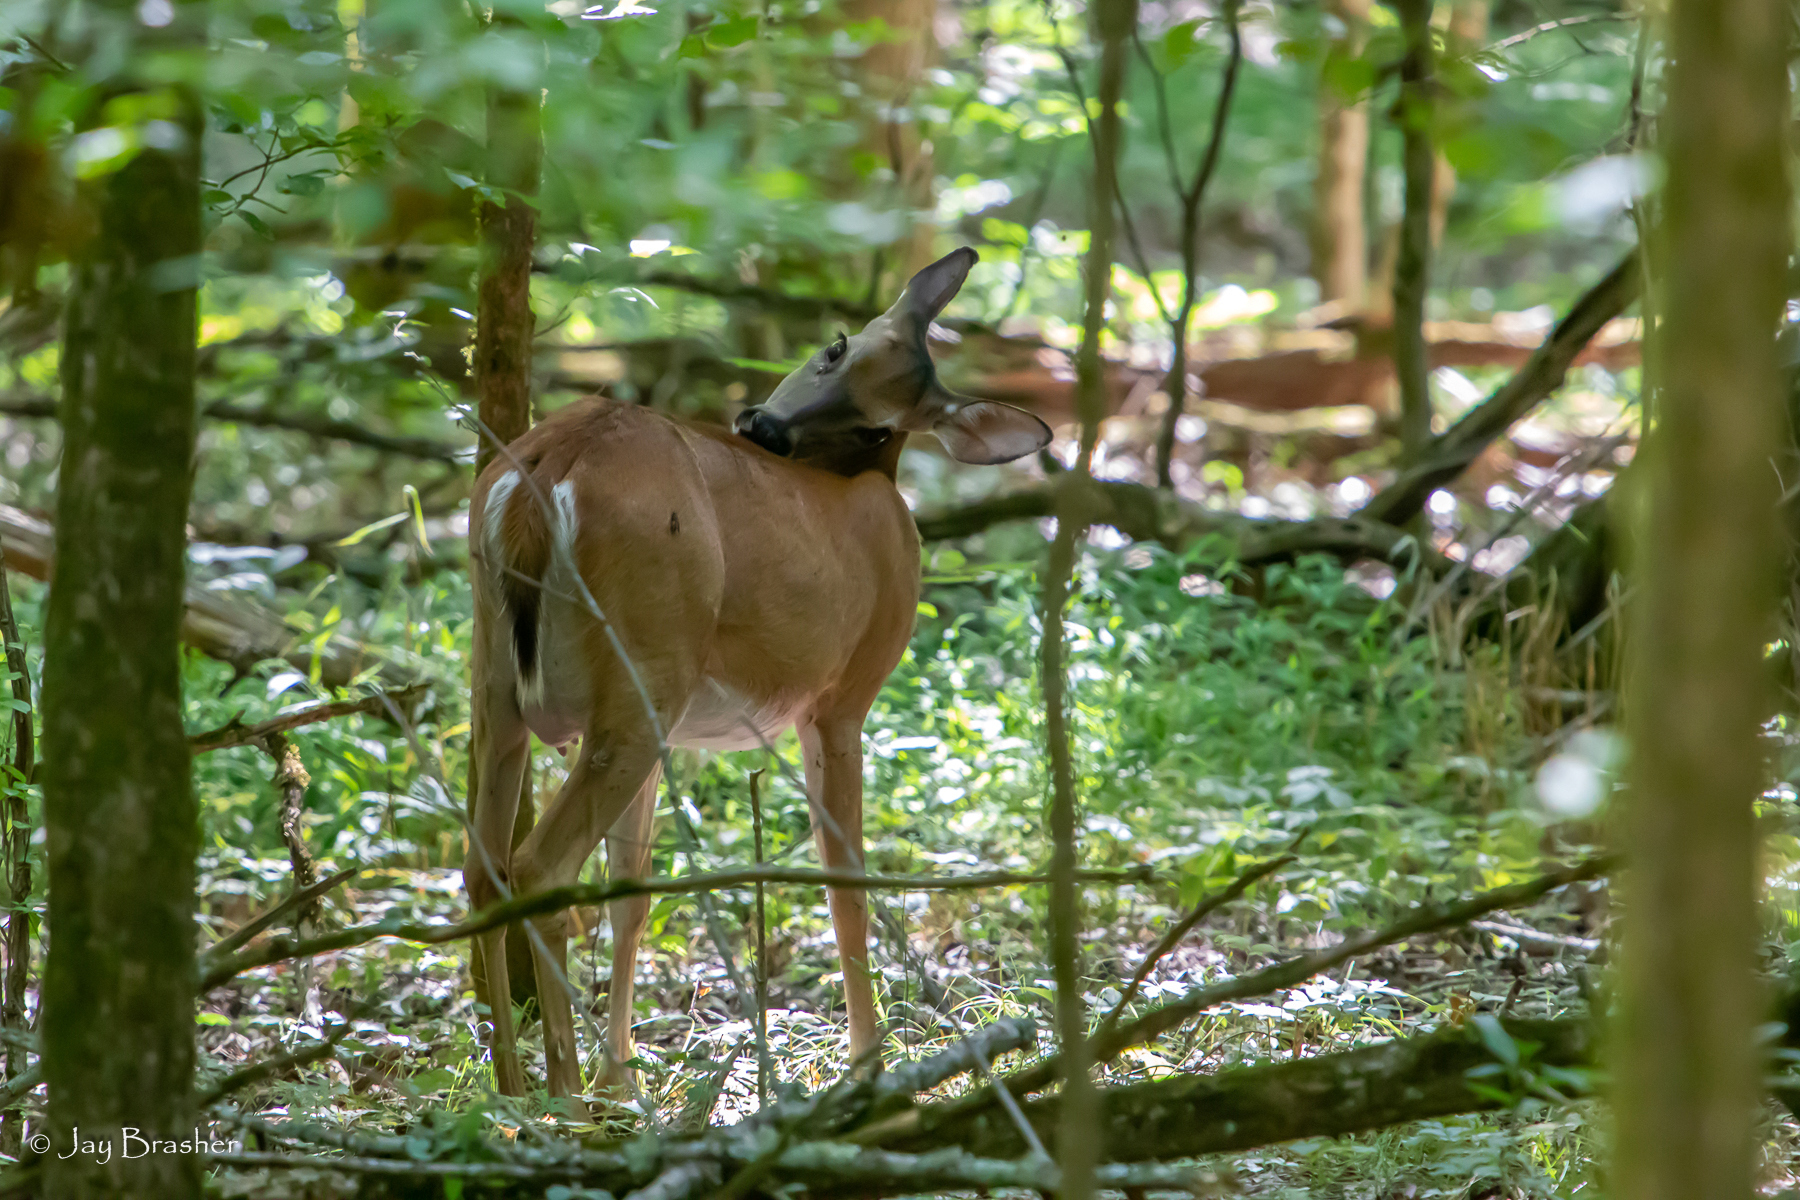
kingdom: Animalia
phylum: Chordata
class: Mammalia
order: Artiodactyla
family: Cervidae
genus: Odocoileus
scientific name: Odocoileus virginianus
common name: White-tailed deer
